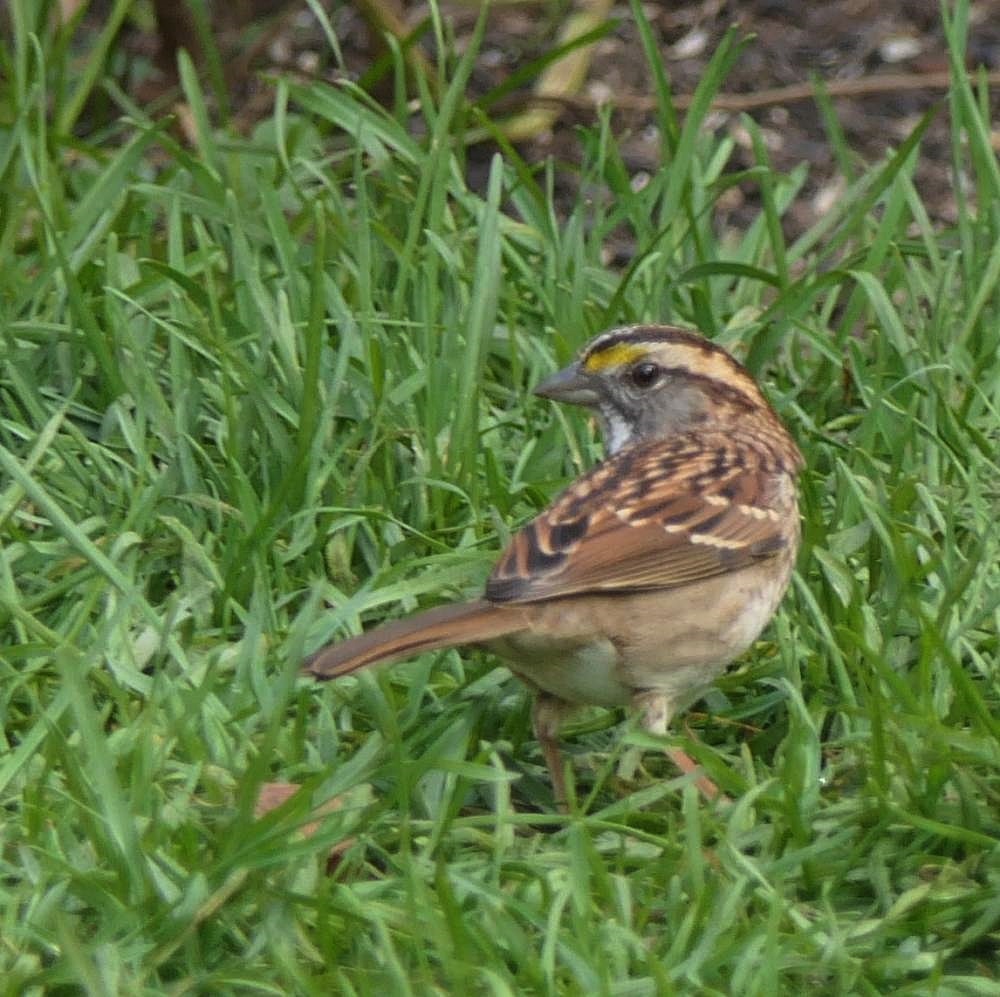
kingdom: Animalia
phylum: Chordata
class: Aves
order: Passeriformes
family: Passerellidae
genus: Zonotrichia
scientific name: Zonotrichia albicollis
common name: White-throated sparrow
